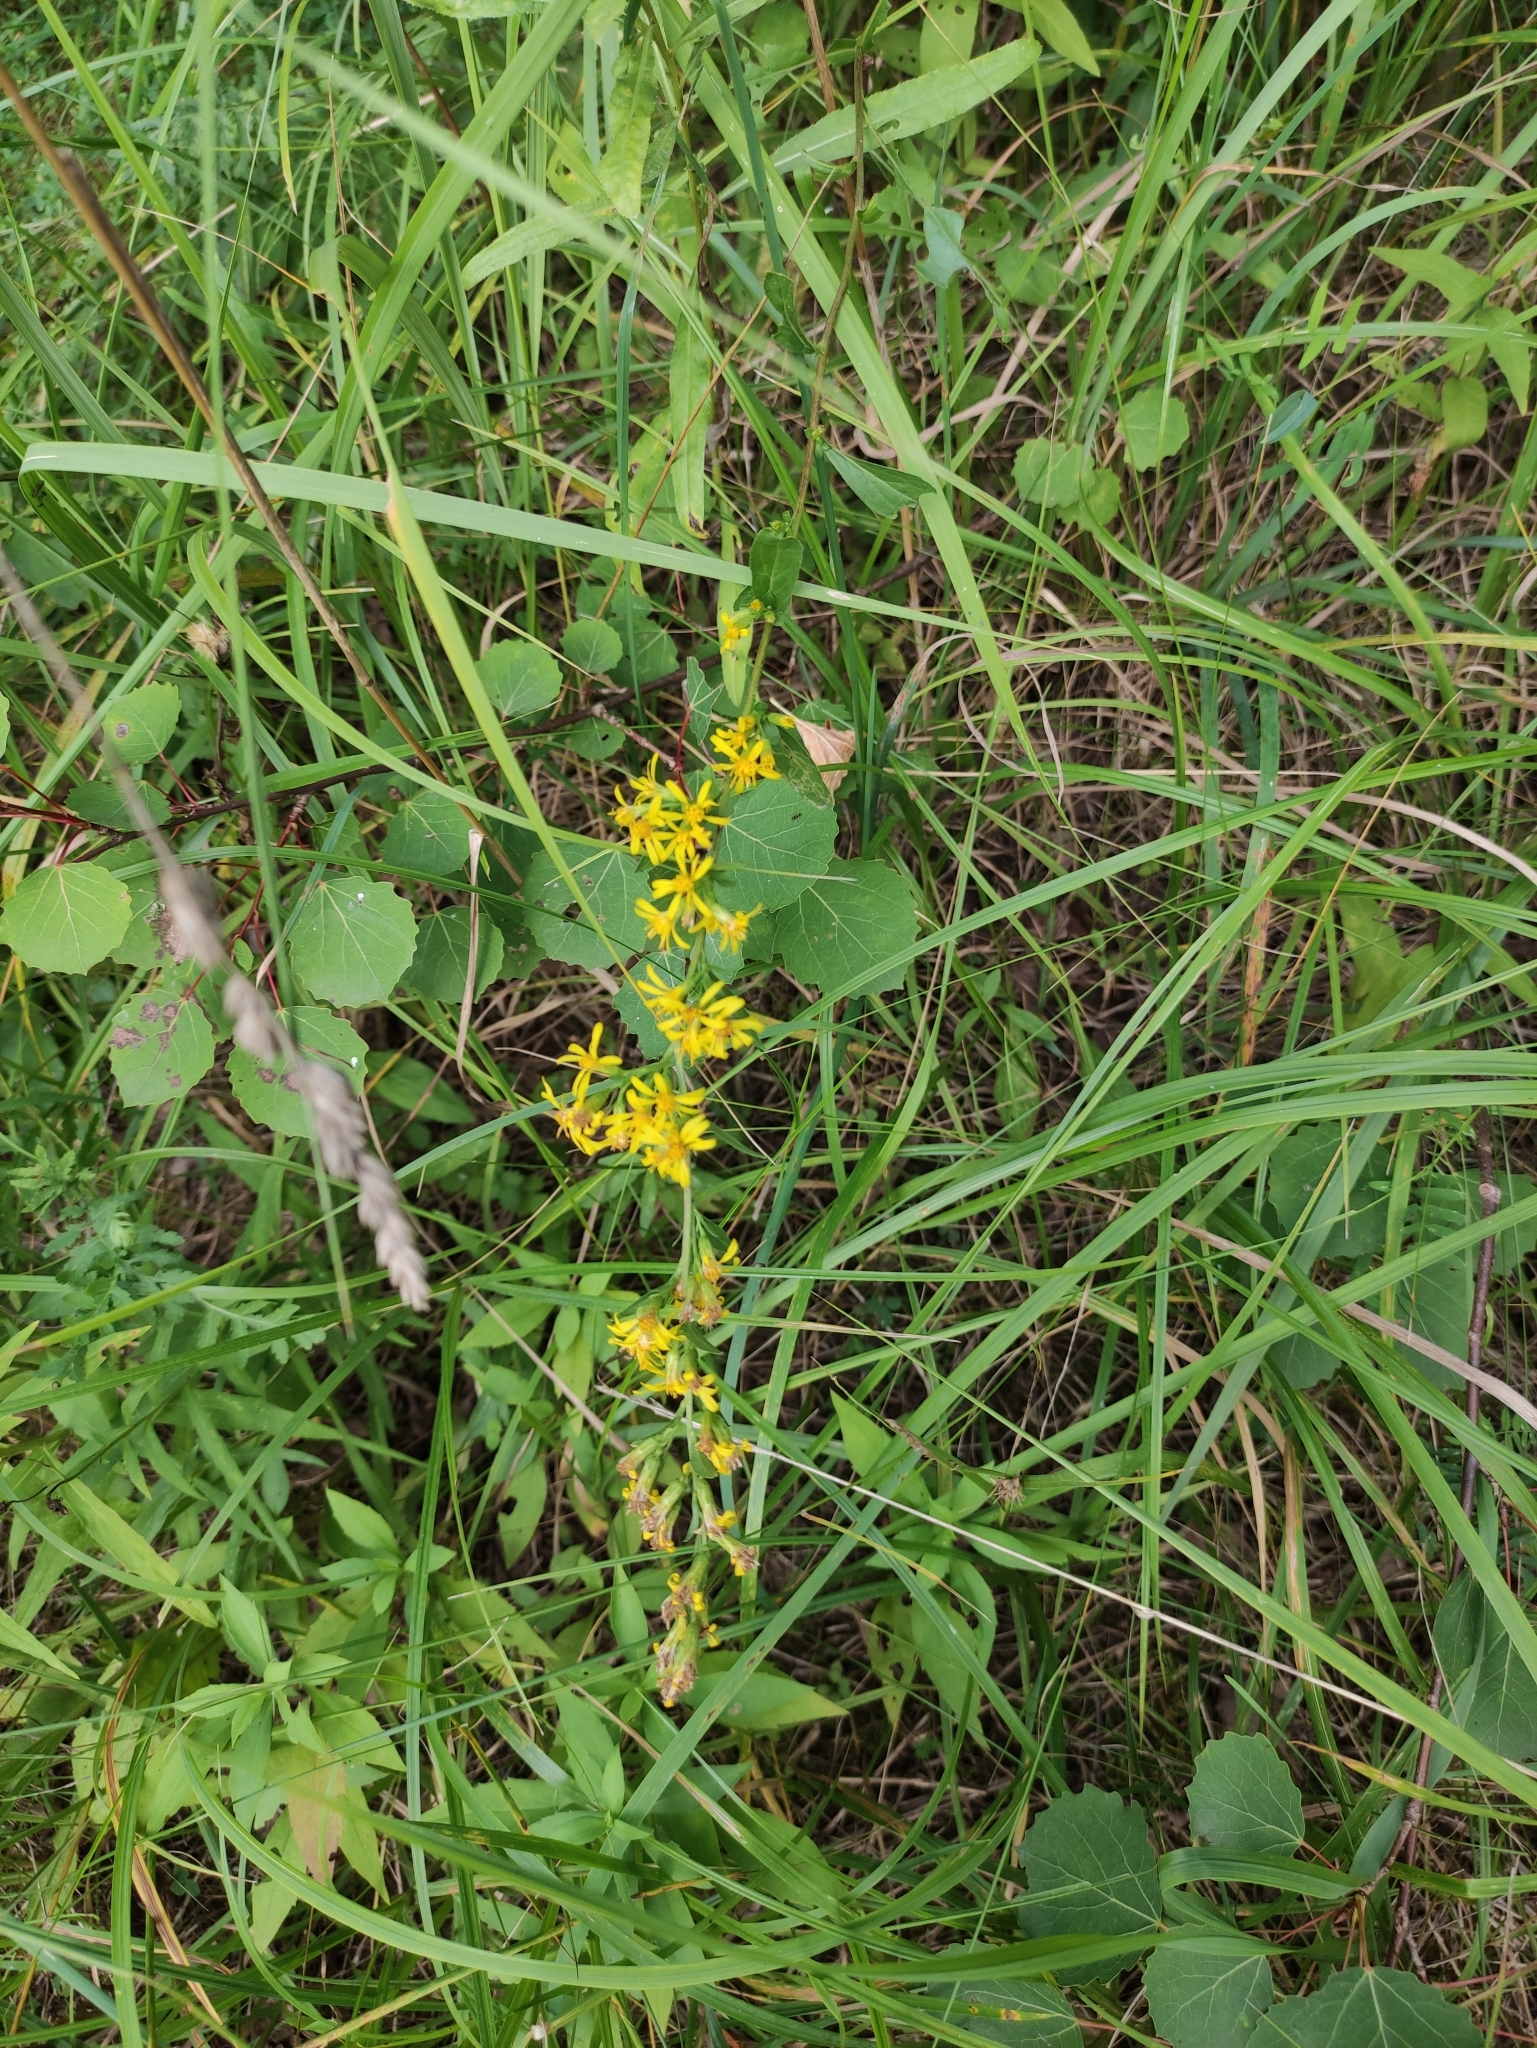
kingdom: Plantae
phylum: Tracheophyta
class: Magnoliopsida
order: Asterales
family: Asteraceae
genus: Solidago
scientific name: Solidago virgaurea
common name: Goldenrod
